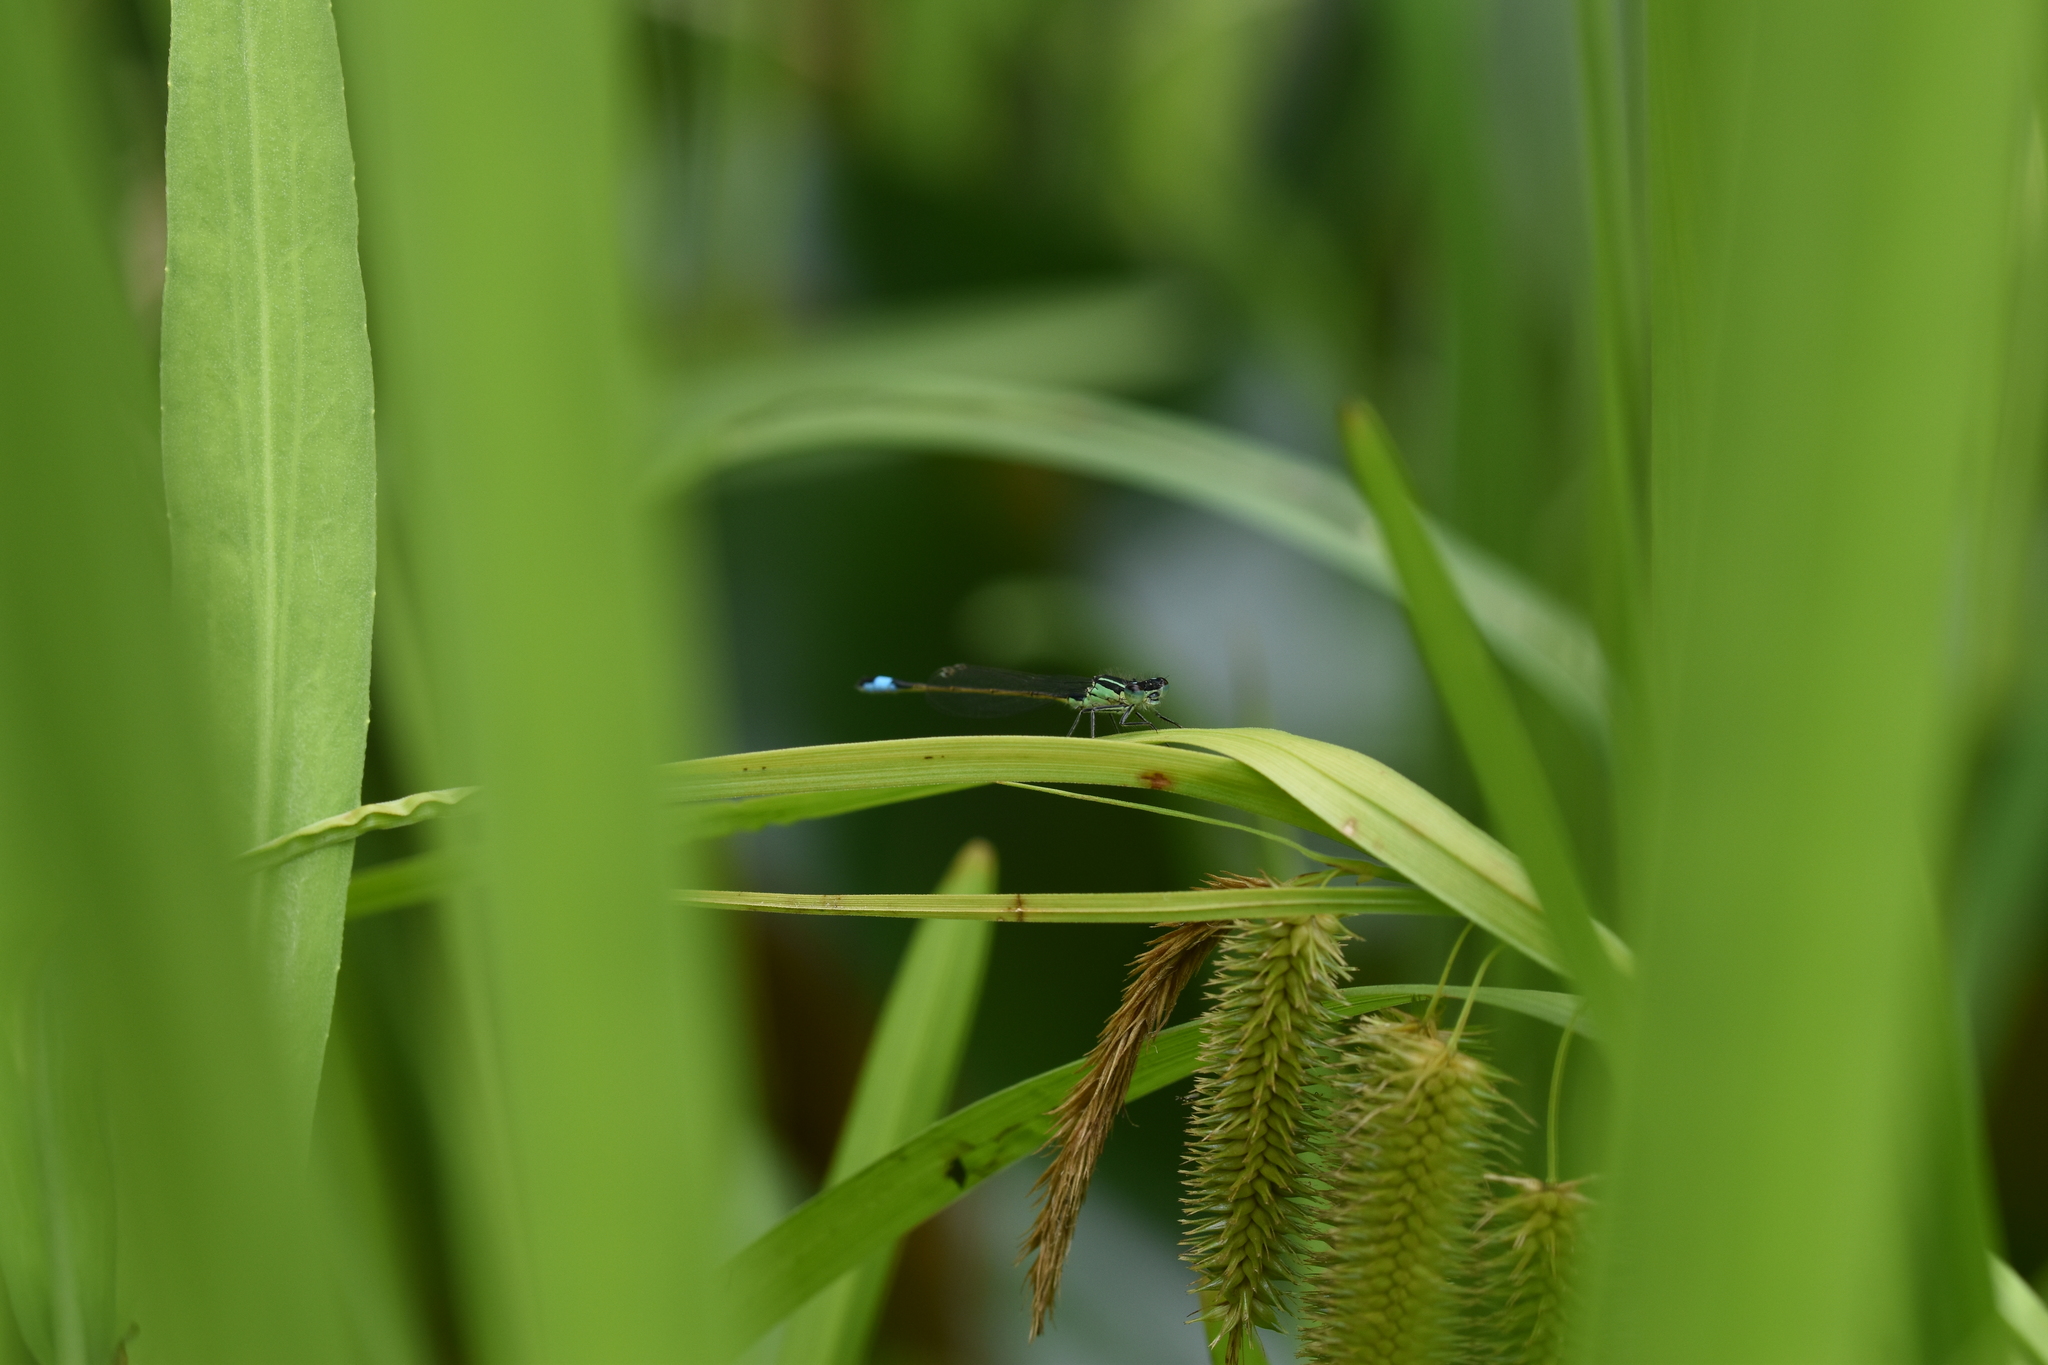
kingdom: Animalia
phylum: Arthropoda
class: Insecta
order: Odonata
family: Coenagrionidae
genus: Ischnura
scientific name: Ischnura elegans
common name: Blue-tailed damselfly
